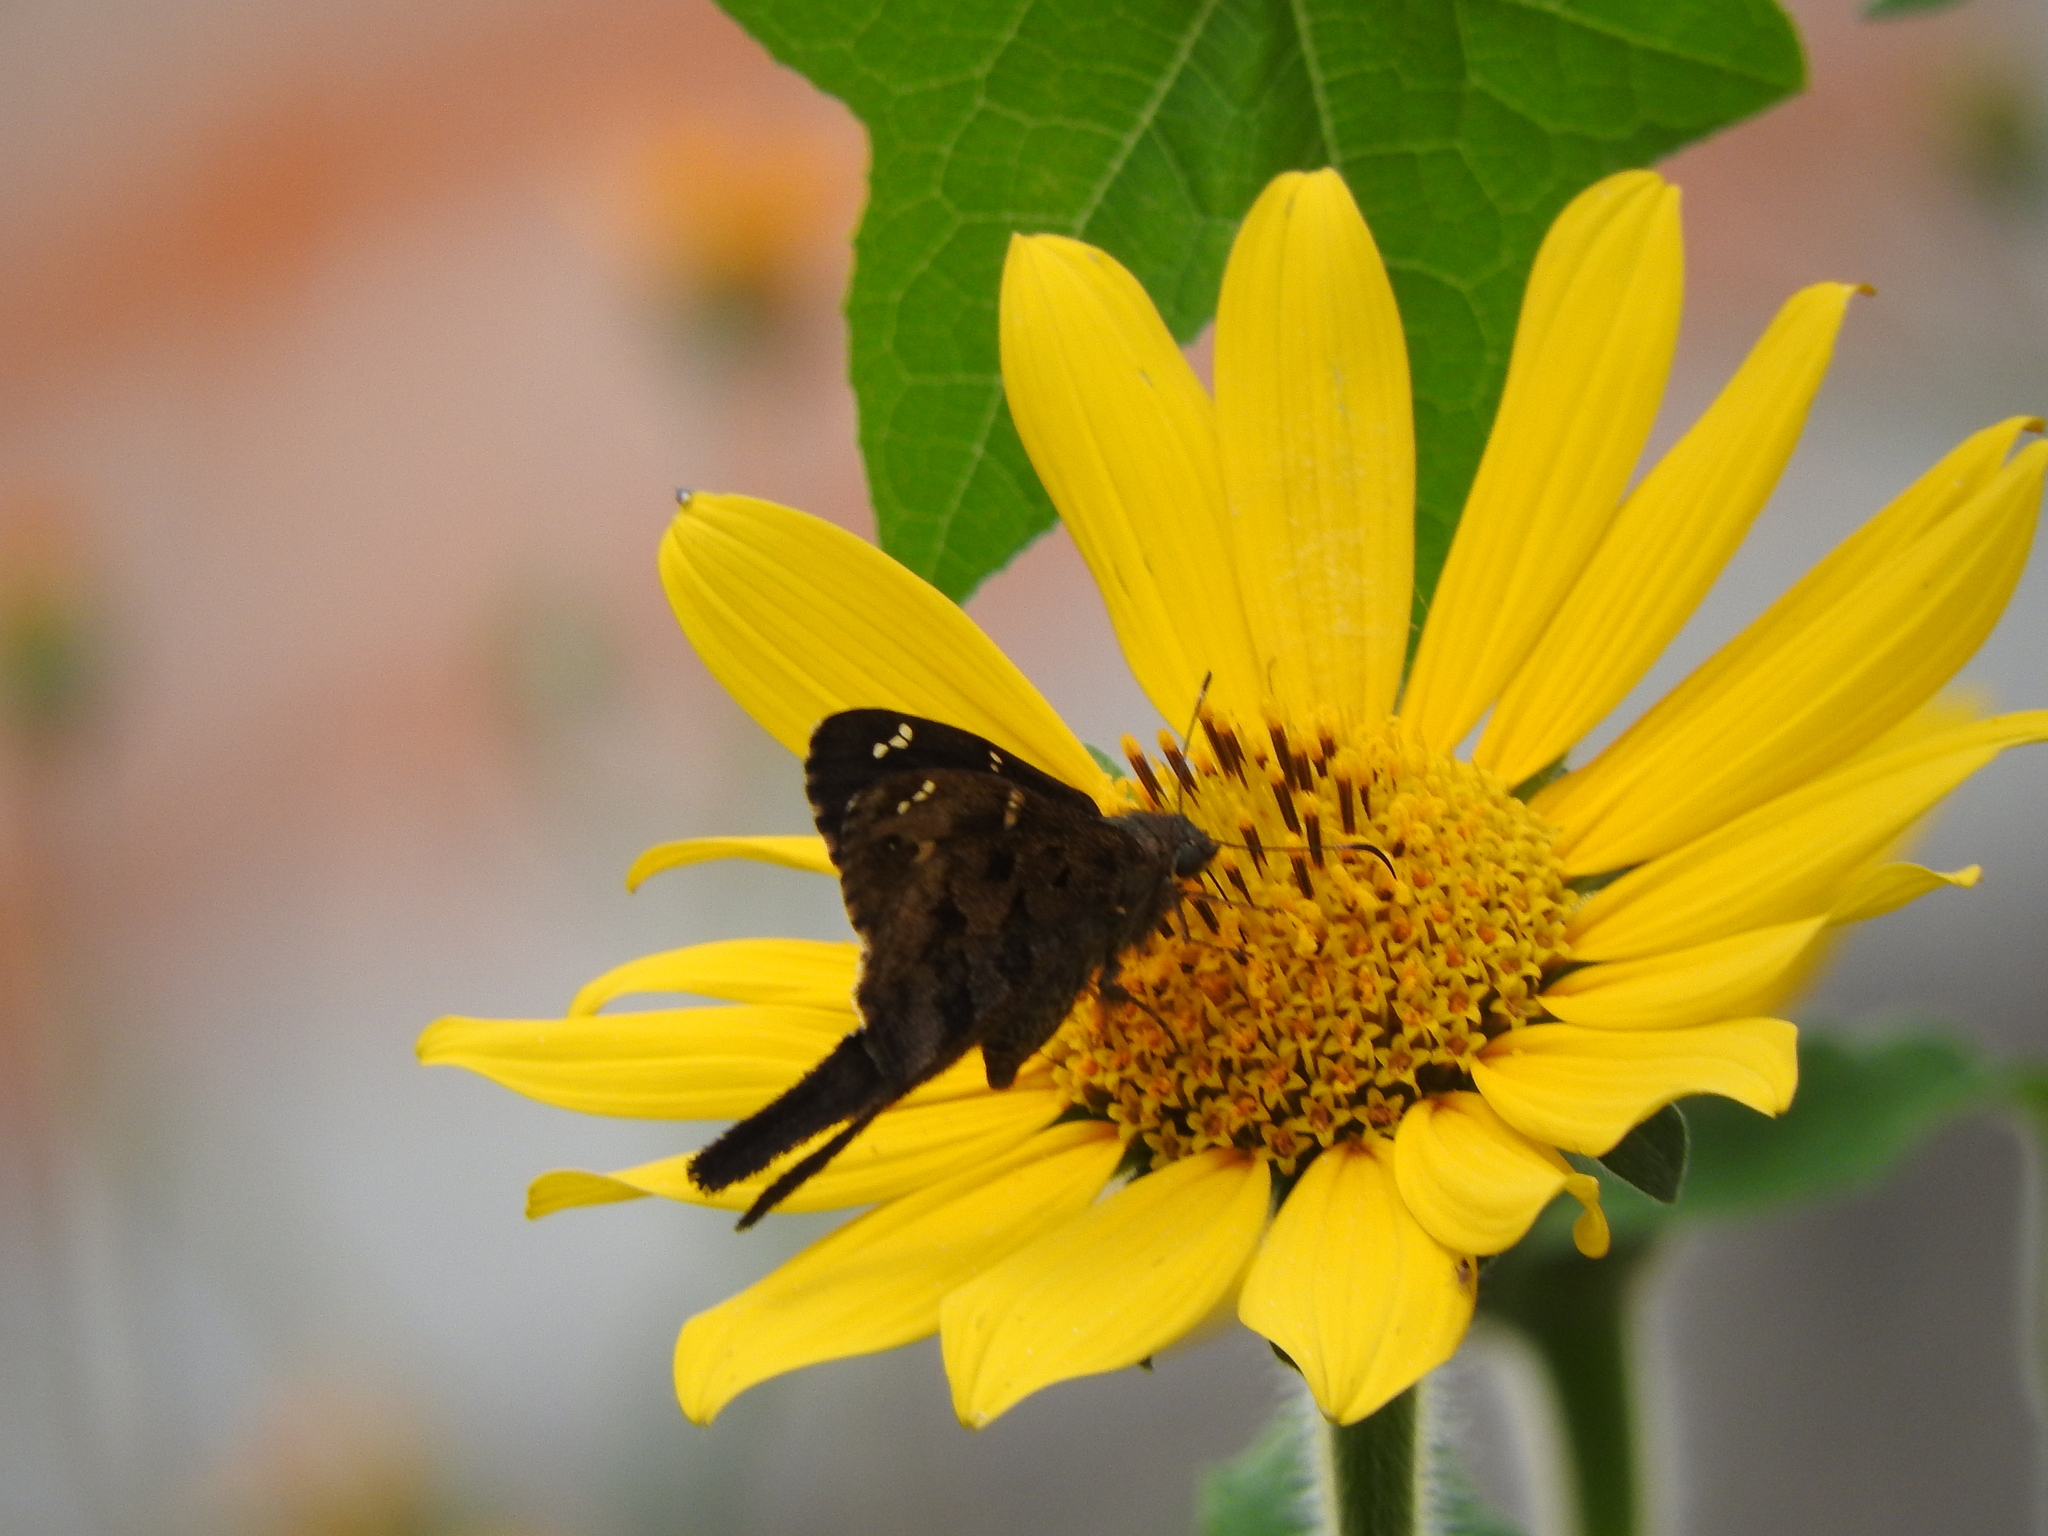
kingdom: Animalia
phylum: Arthropoda
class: Insecta
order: Lepidoptera
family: Hesperiidae
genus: Thorybes
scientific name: Thorybes
